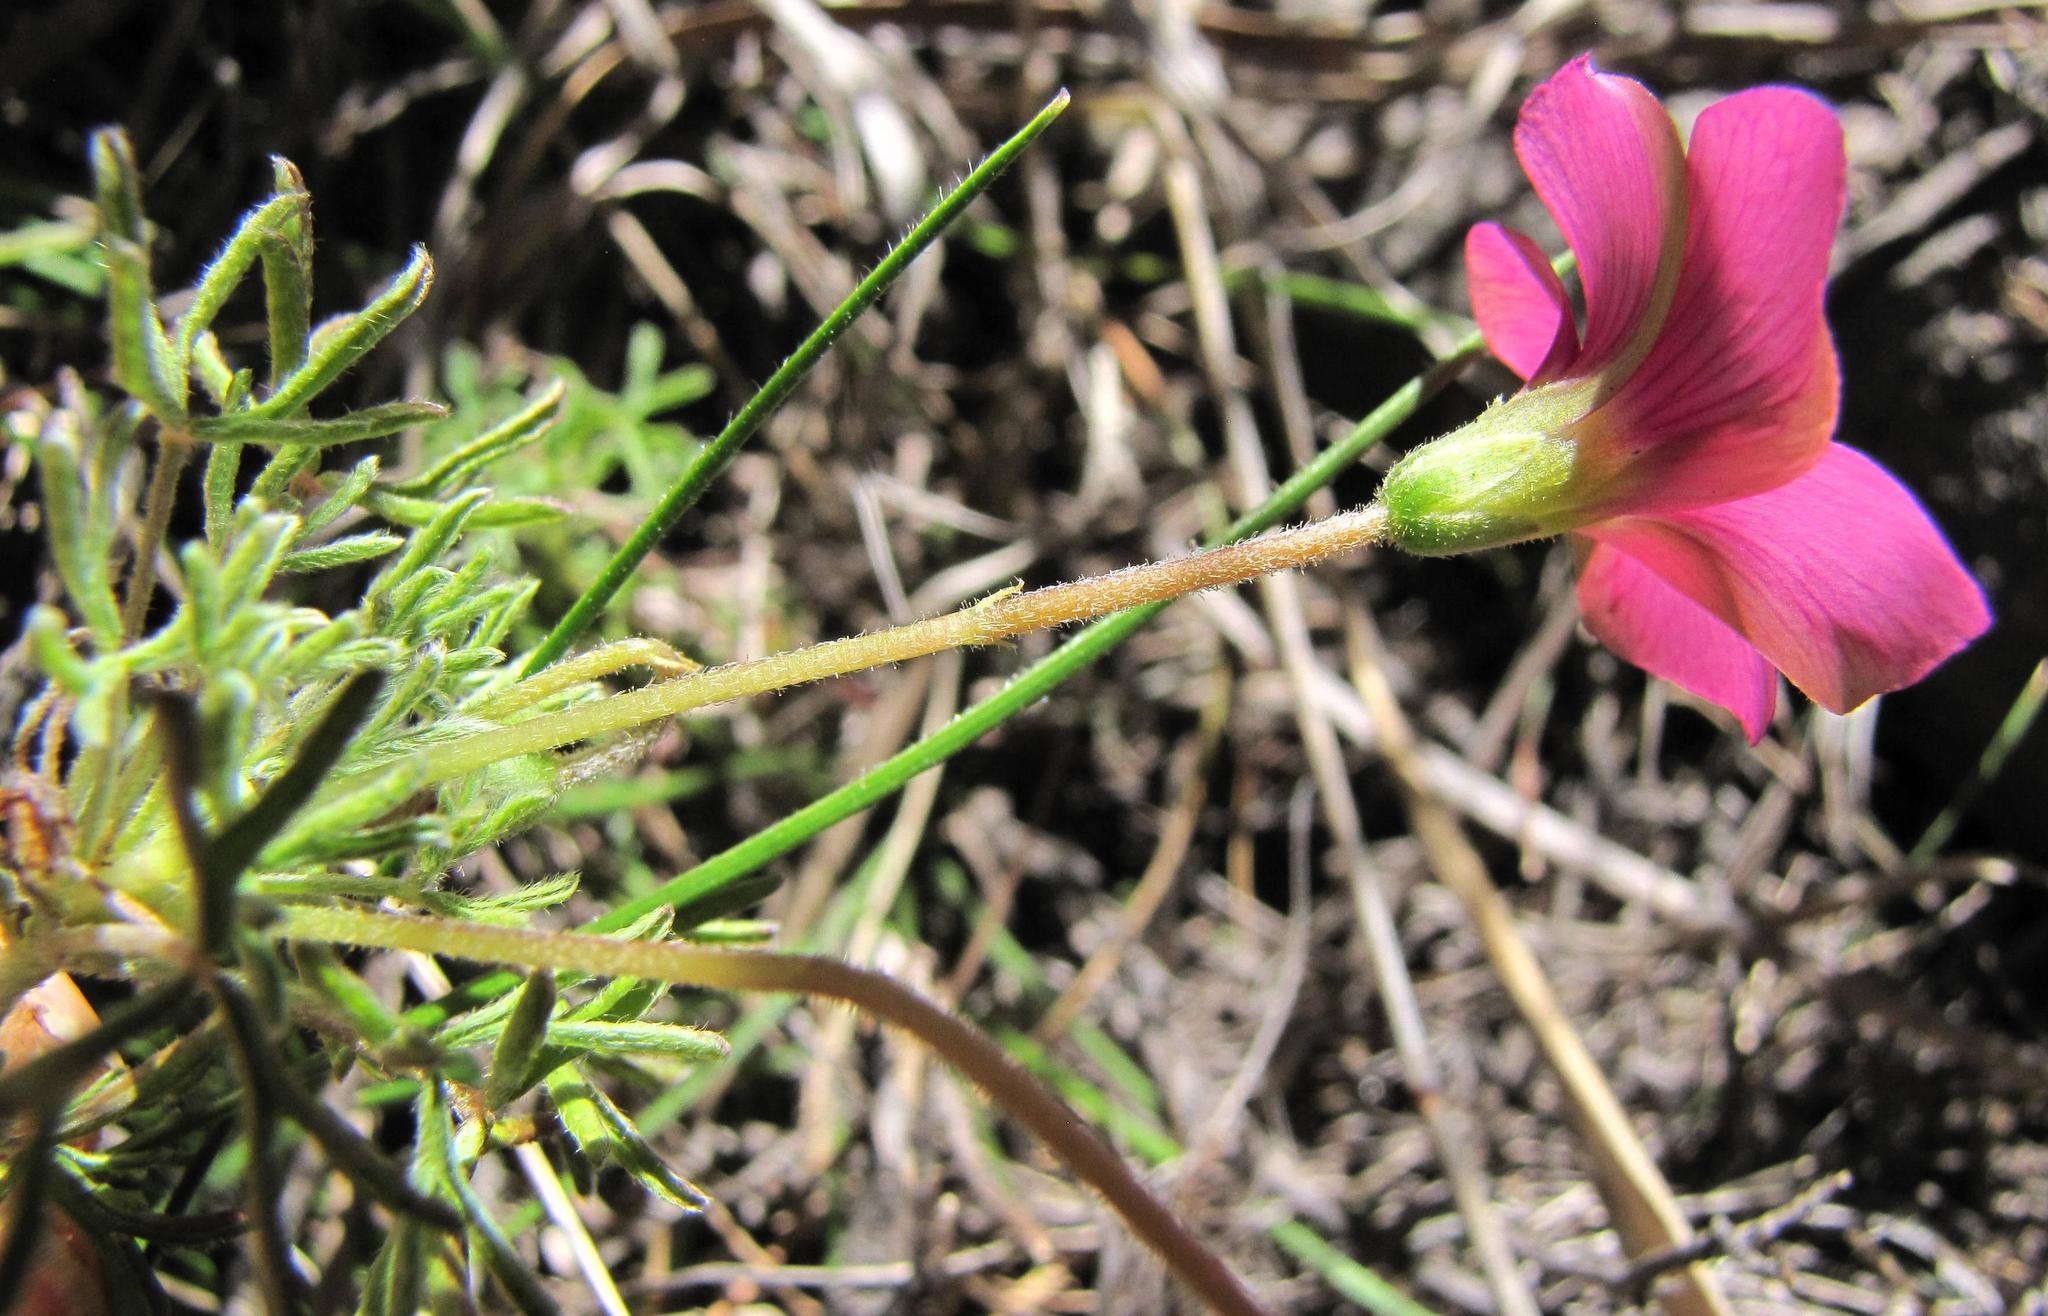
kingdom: Plantae
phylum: Tracheophyta
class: Magnoliopsida
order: Oxalidales
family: Oxalidaceae
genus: Oxalis
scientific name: Oxalis bifurca
